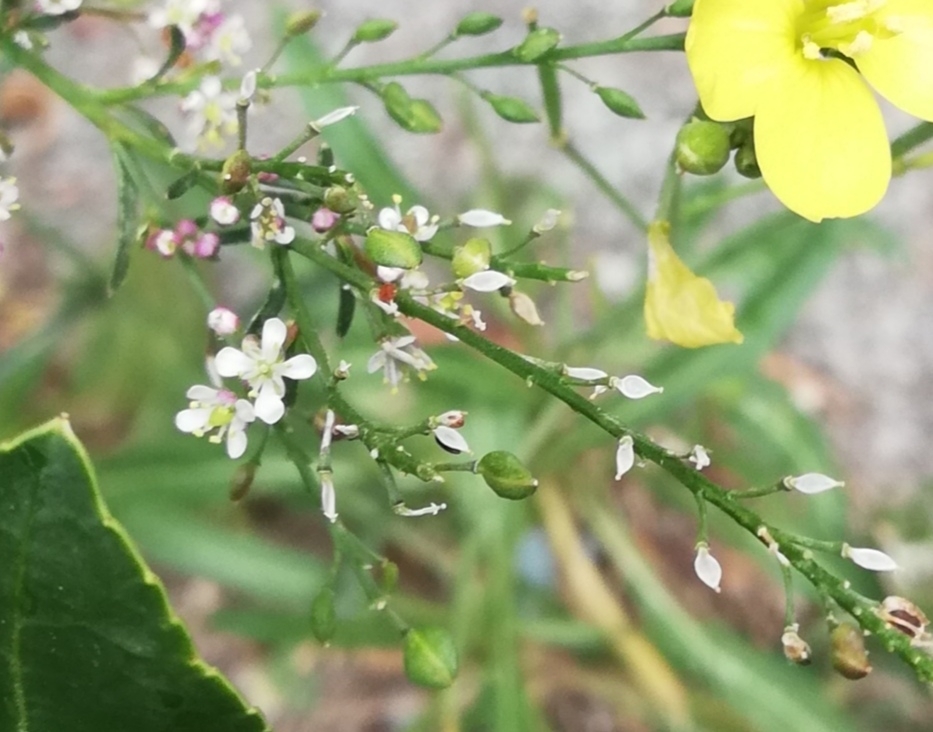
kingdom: Plantae
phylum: Tracheophyta
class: Magnoliopsida
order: Brassicales
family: Brassicaceae
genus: Lepidium
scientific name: Lepidium graminifolium
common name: Tall pepperwort
